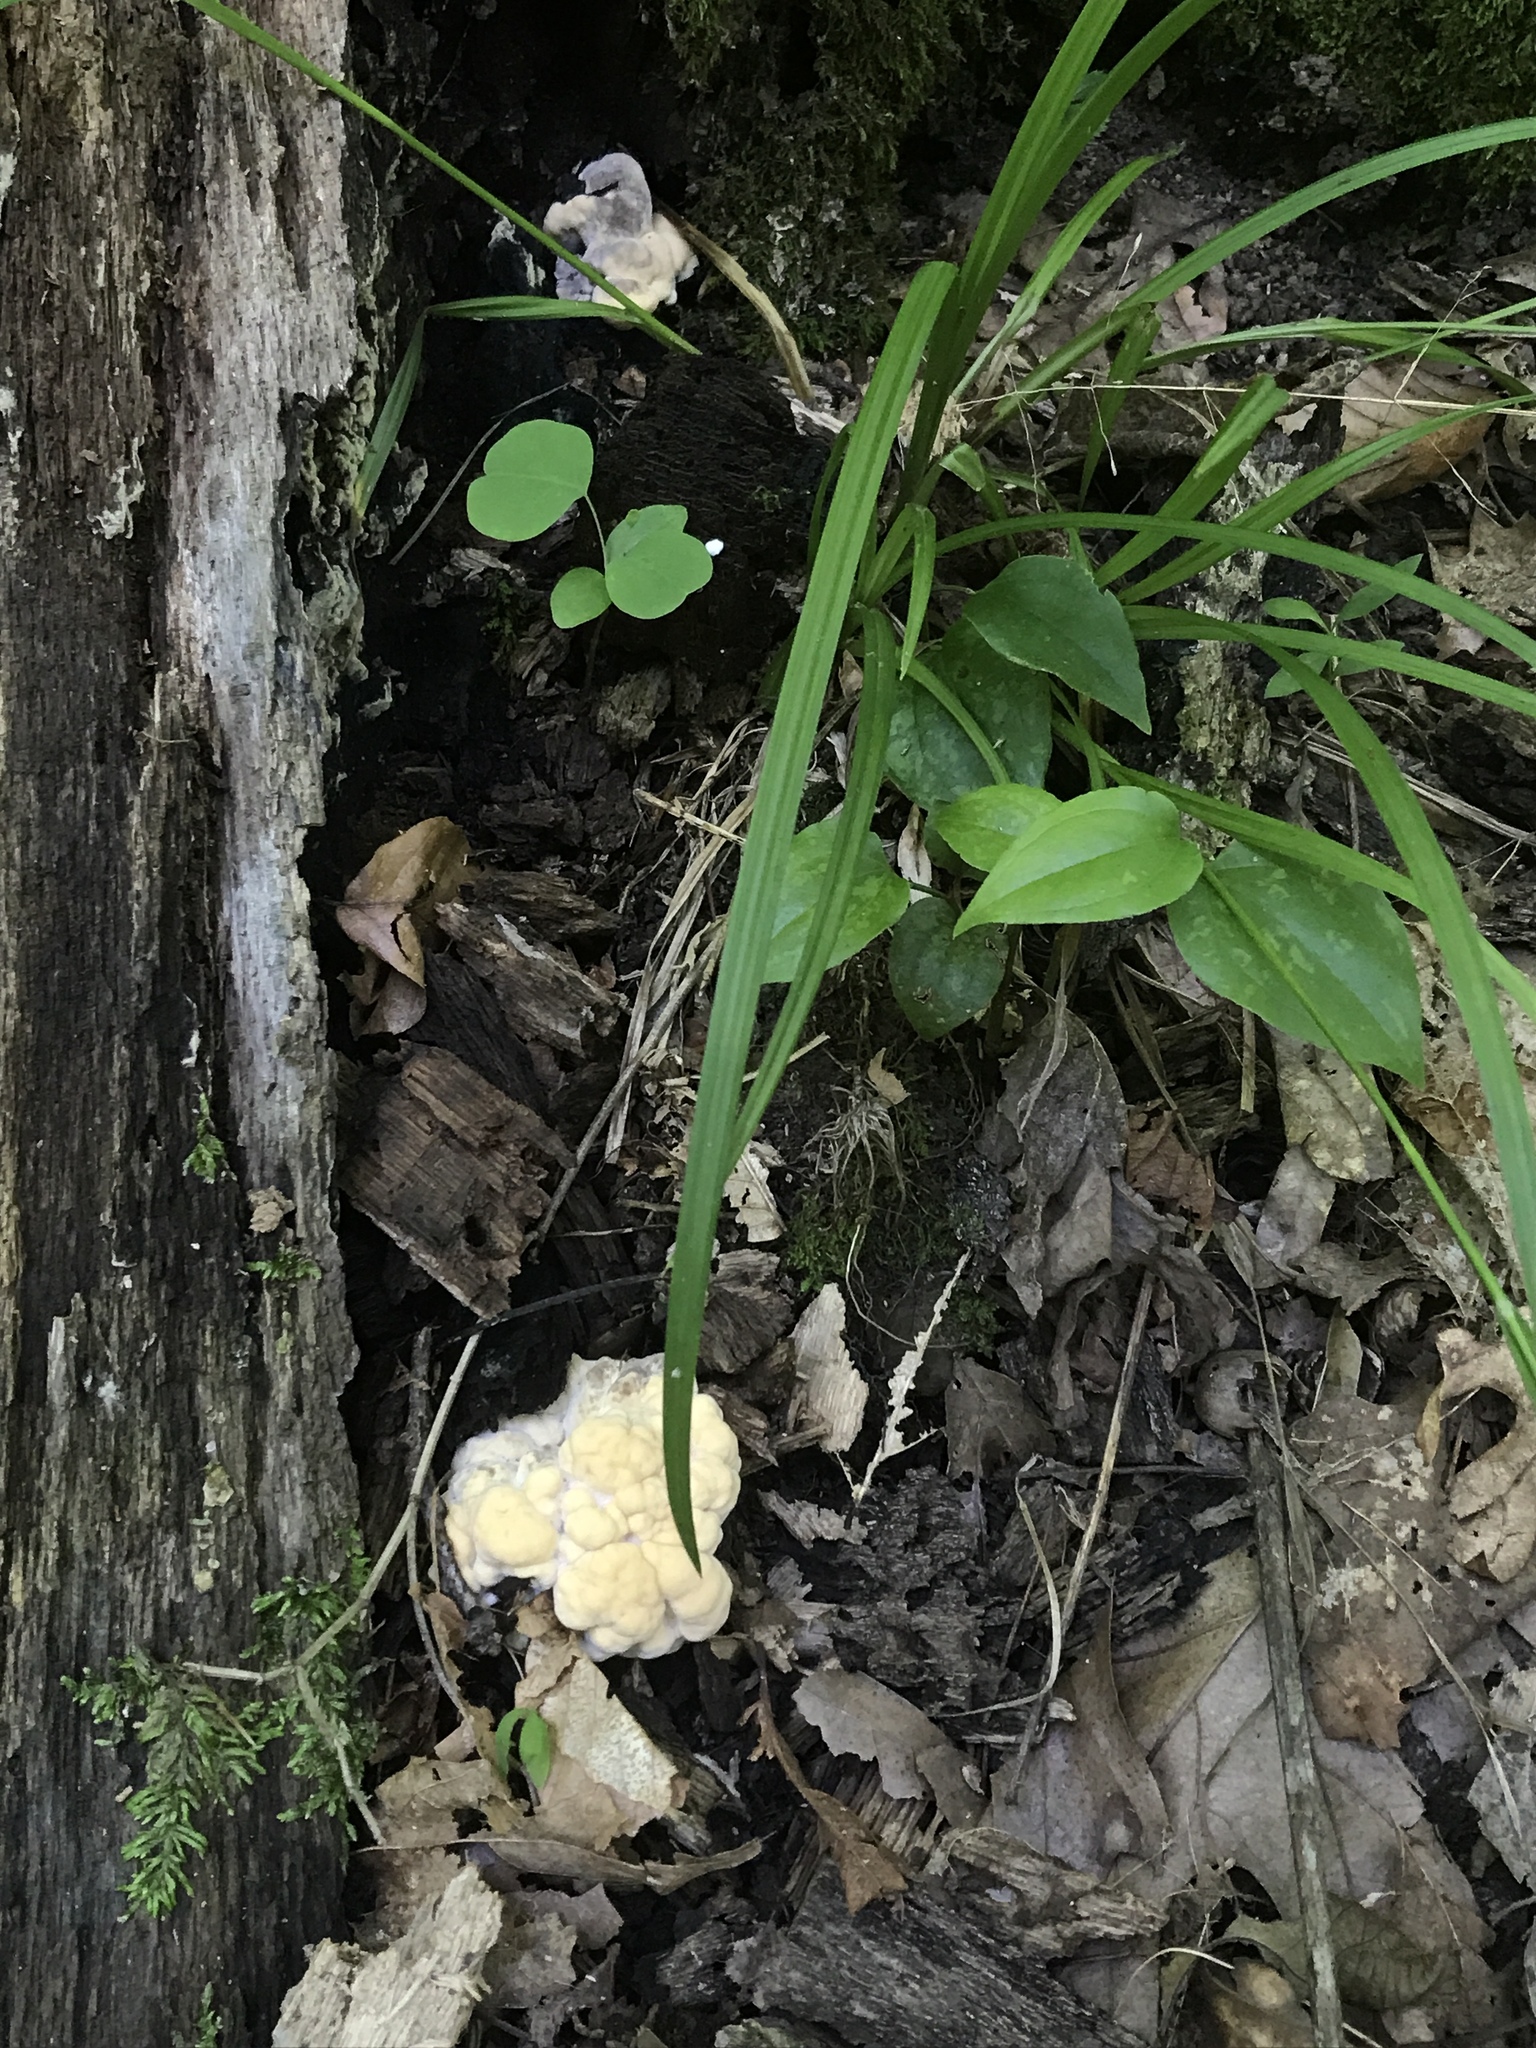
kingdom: Fungi
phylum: Basidiomycota
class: Agaricomycetes
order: Polyporales
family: Meripilaceae
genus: Meripilus
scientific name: Meripilus sumstinei
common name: Black-staining polypore
